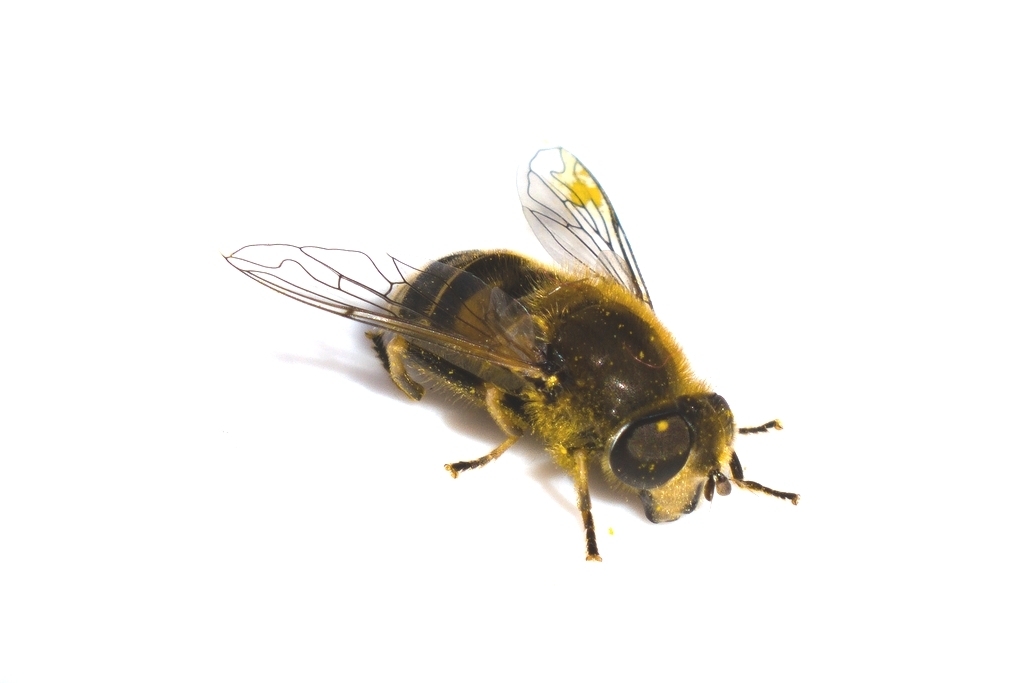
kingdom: Animalia
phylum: Arthropoda
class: Insecta
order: Diptera
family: Syrphidae
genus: Eristalis
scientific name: Eristalis nemorum
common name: Orange-spined drone fly
